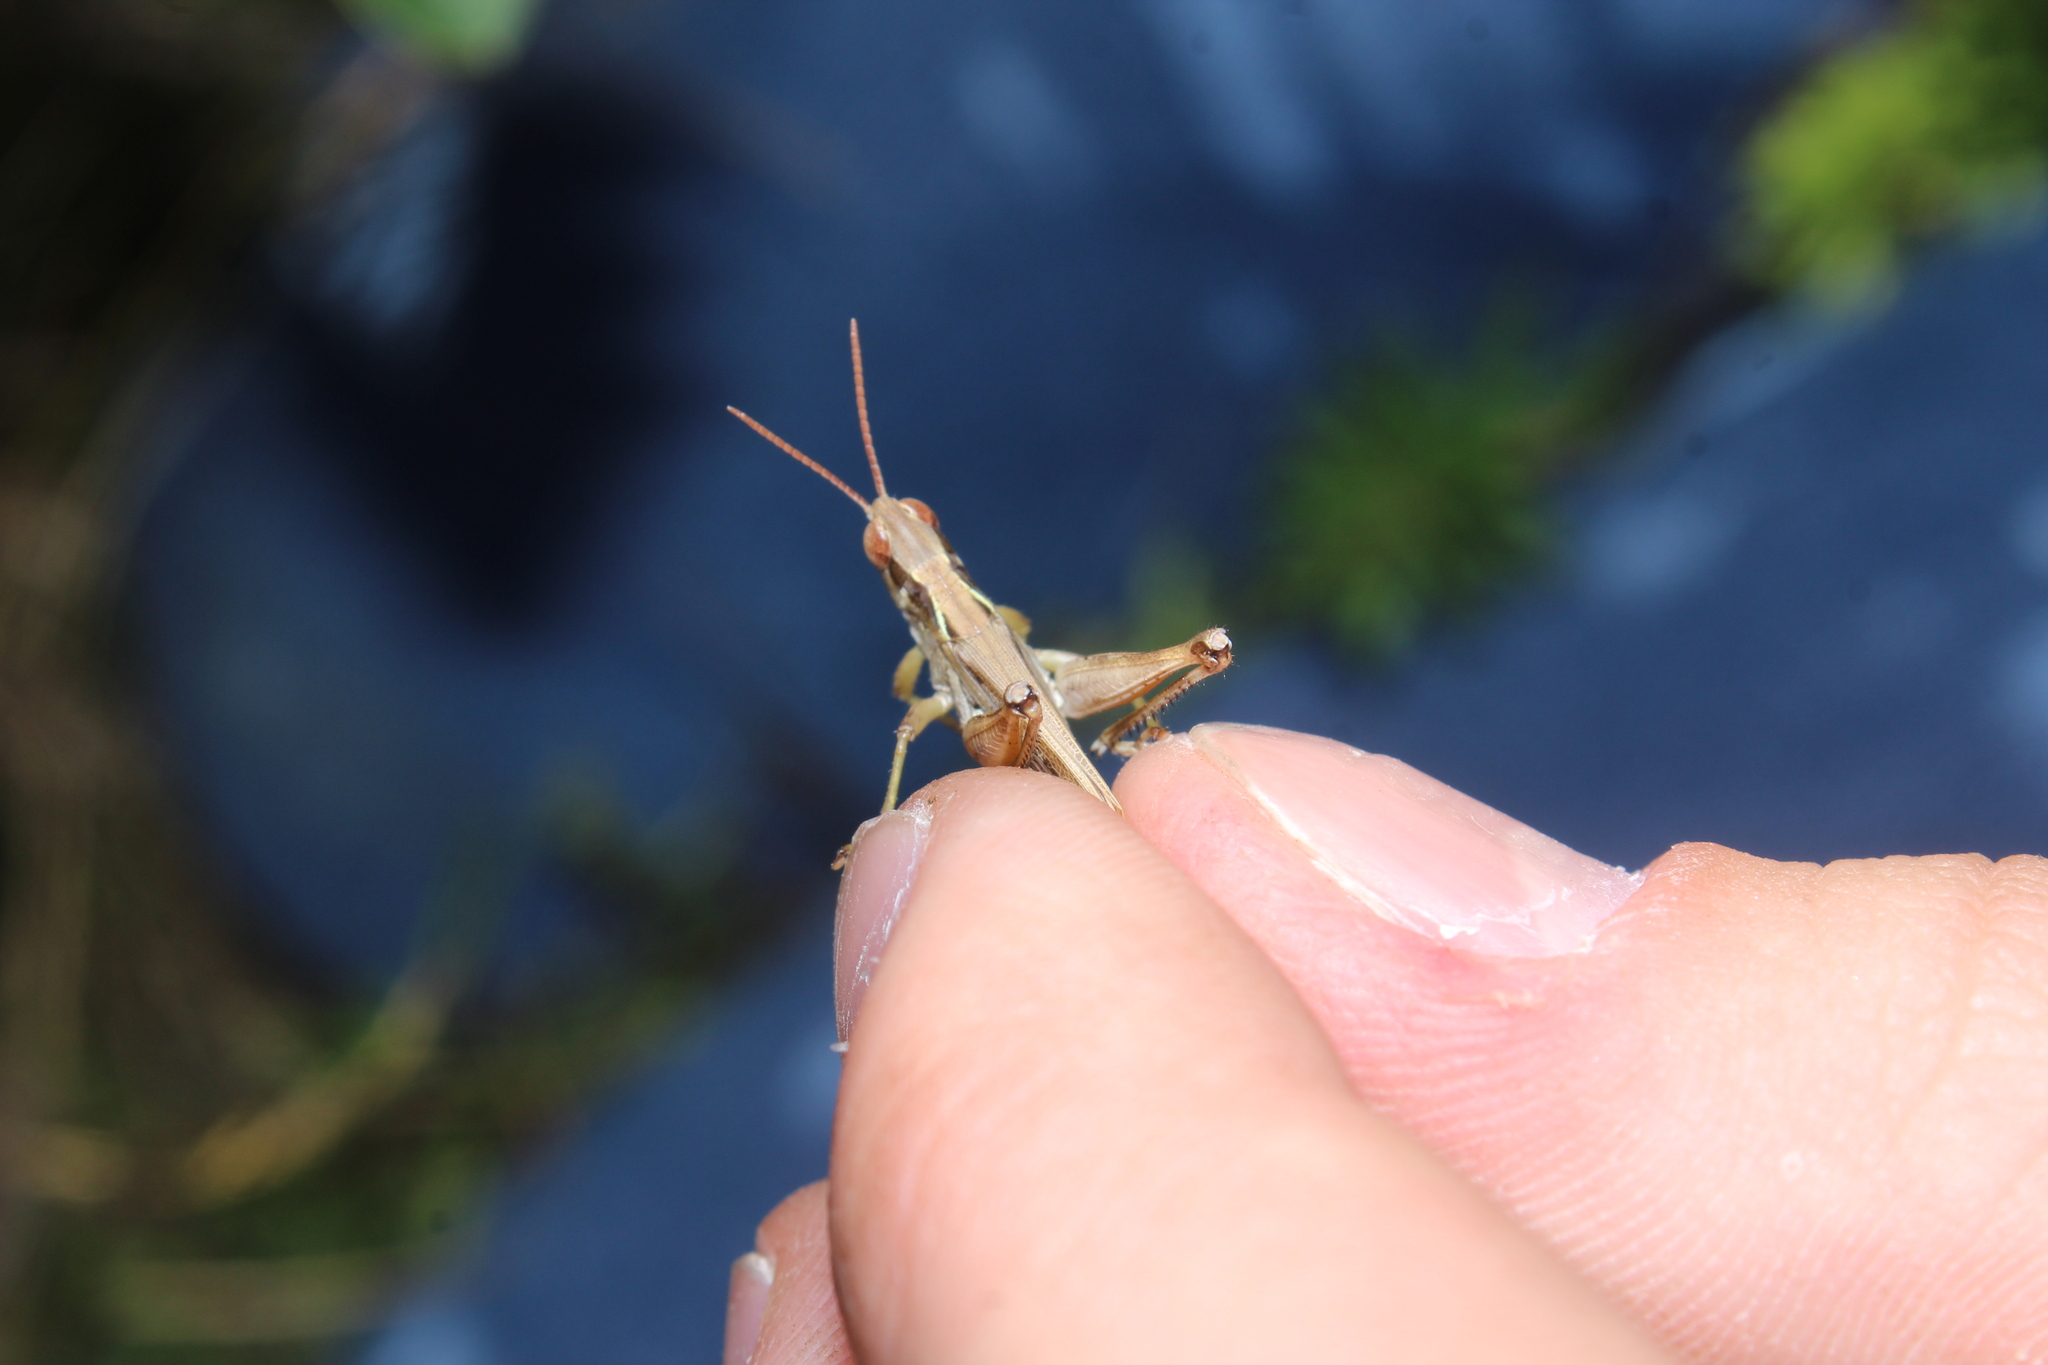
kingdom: Animalia
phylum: Arthropoda
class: Insecta
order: Orthoptera
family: Acrididae
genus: Orphulella
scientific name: Orphulella pelidna
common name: Spotted-wing grasshopper
